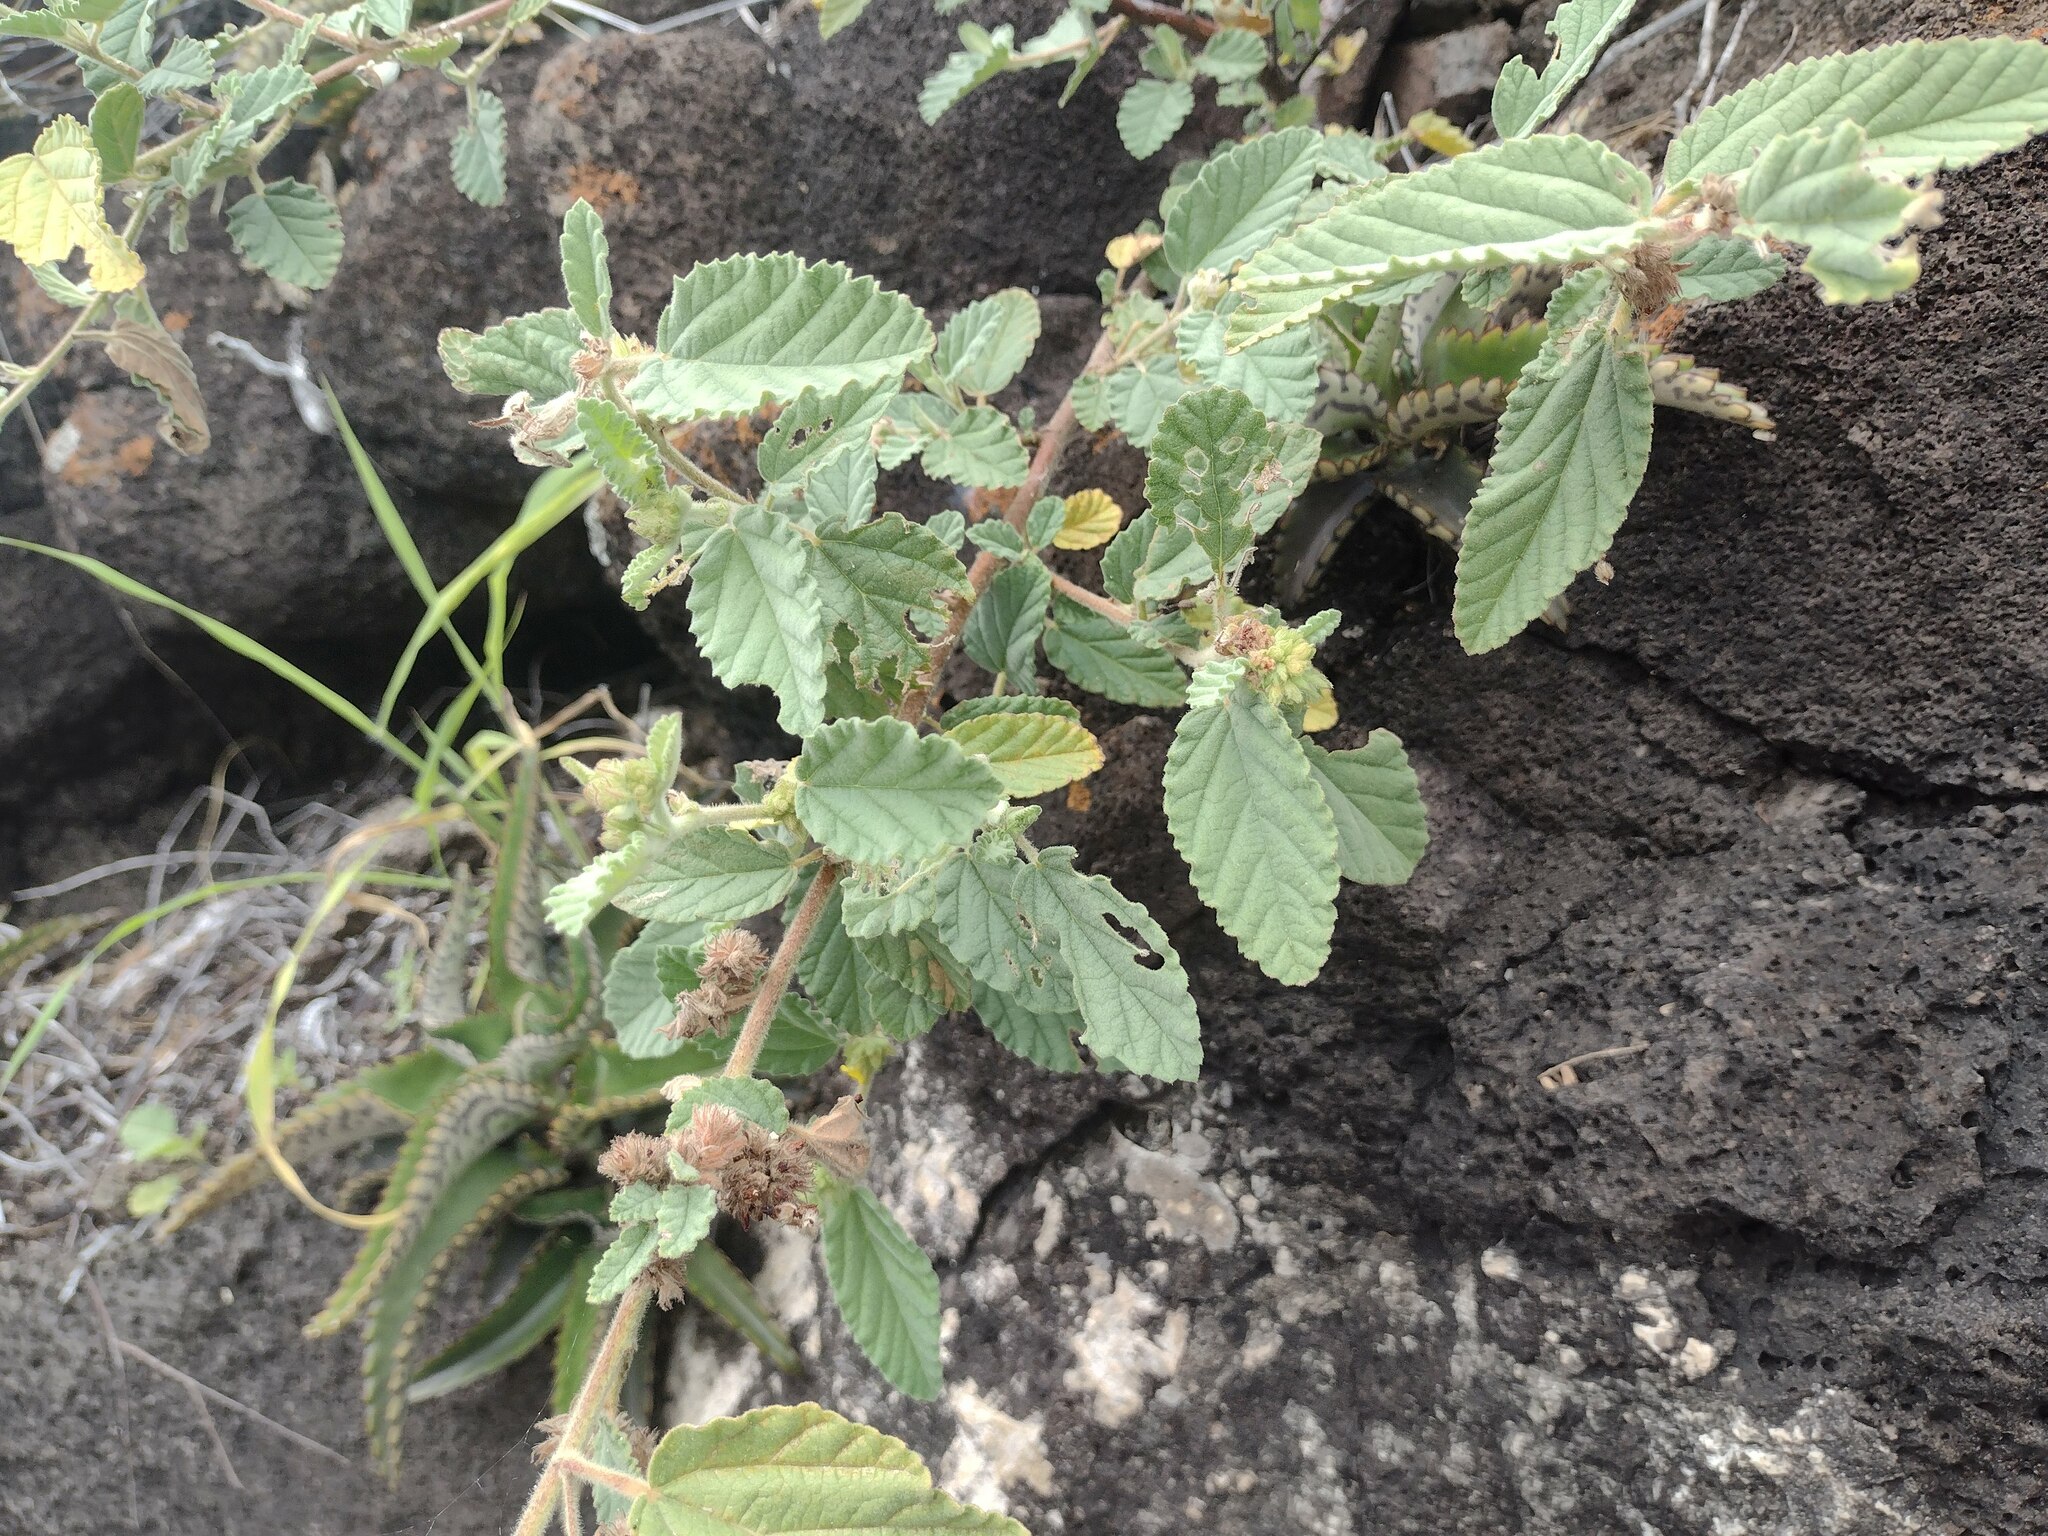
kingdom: Plantae
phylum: Tracheophyta
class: Magnoliopsida
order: Malvales
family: Malvaceae
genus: Waltheria
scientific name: Waltheria indica
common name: Leather-coat
